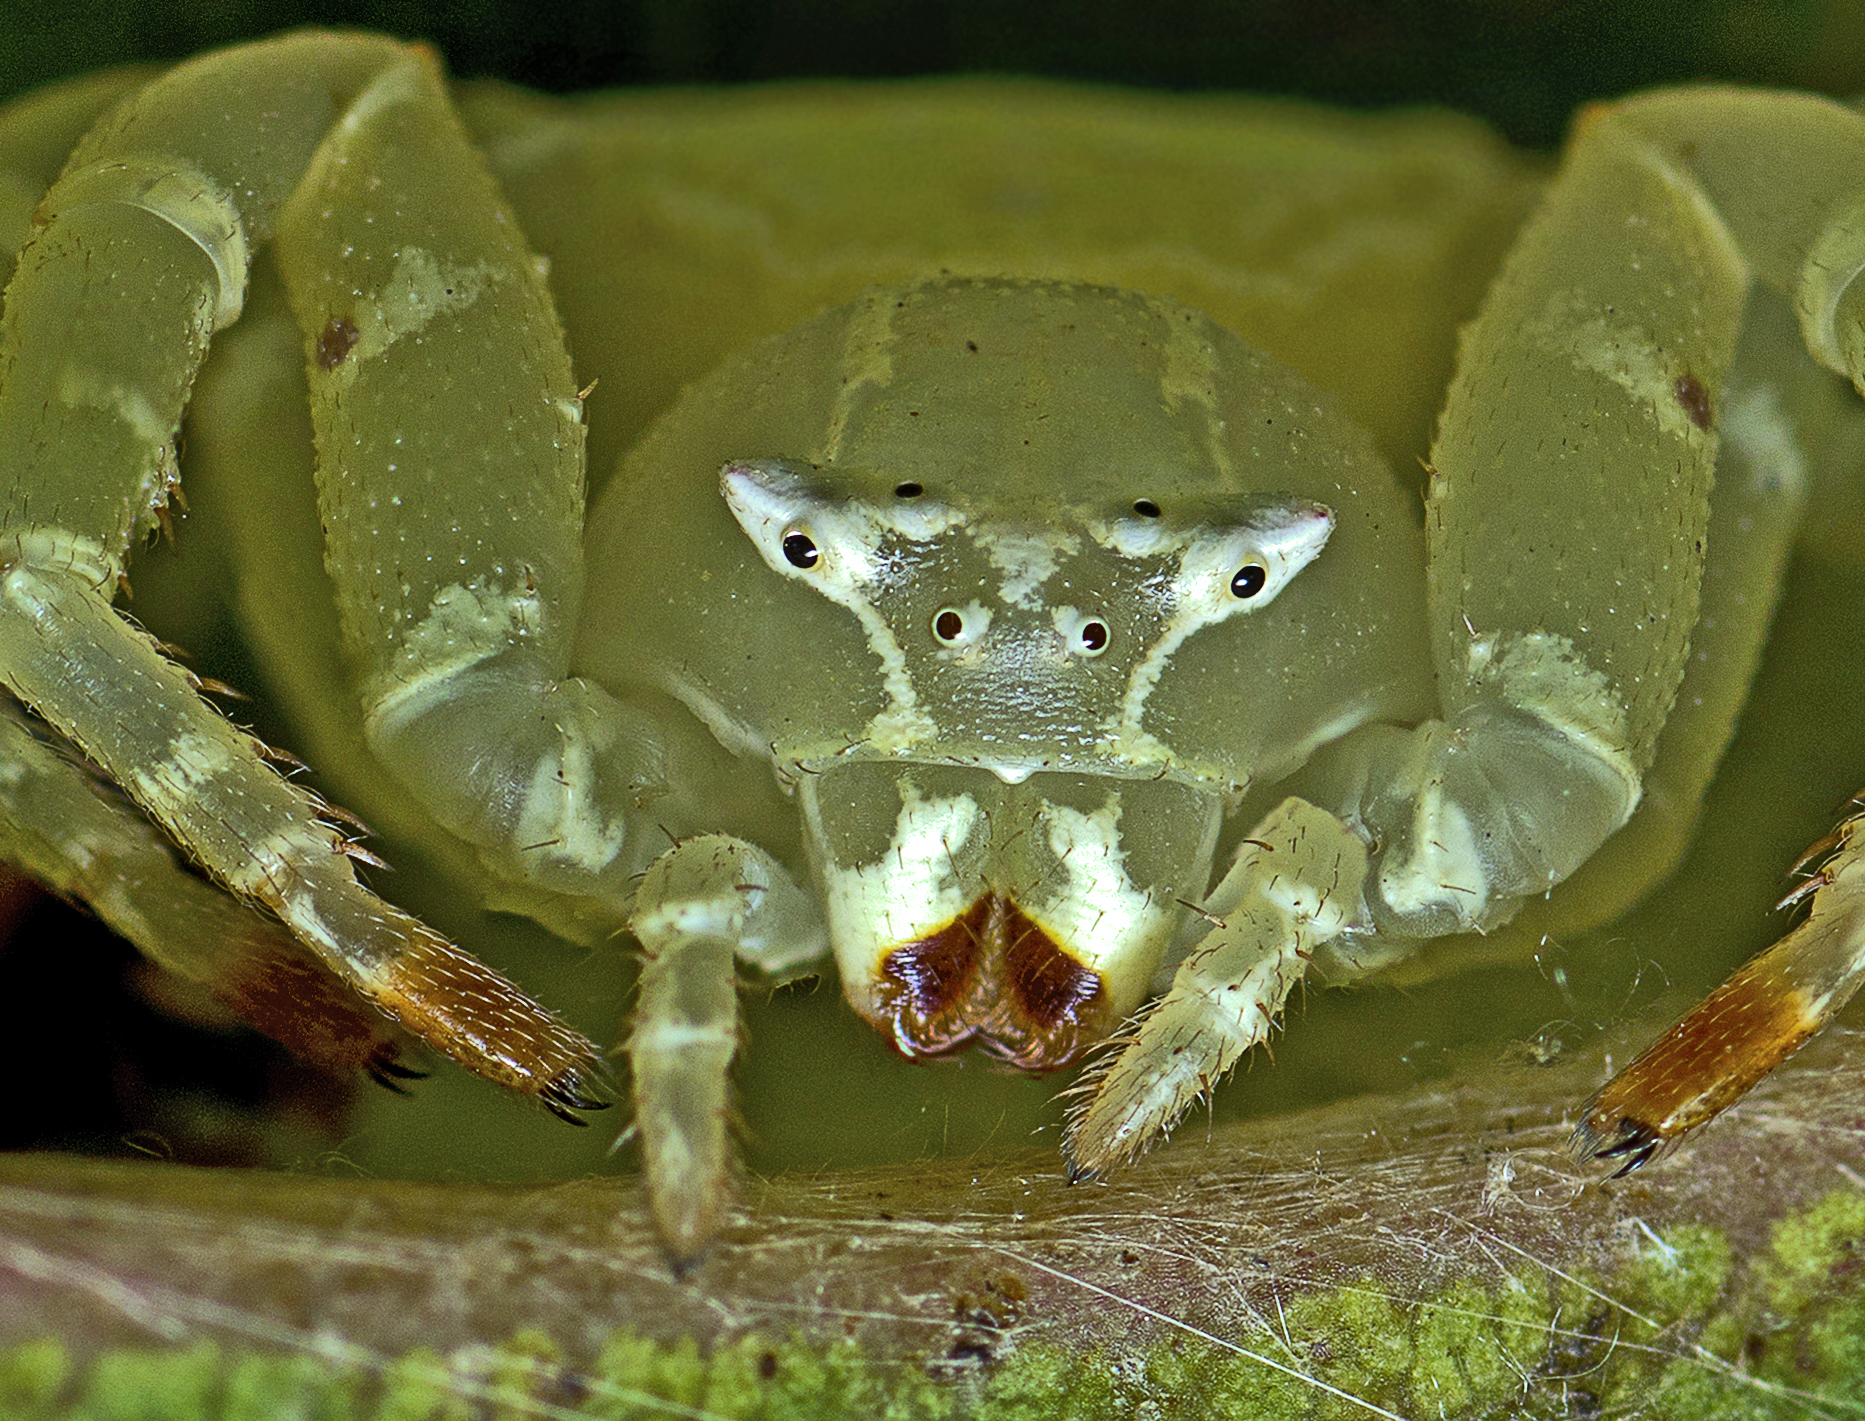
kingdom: Animalia
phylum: Arthropoda
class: Arachnida
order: Araneae
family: Thomisidae
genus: Thomisus
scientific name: Thomisus spectabilis
